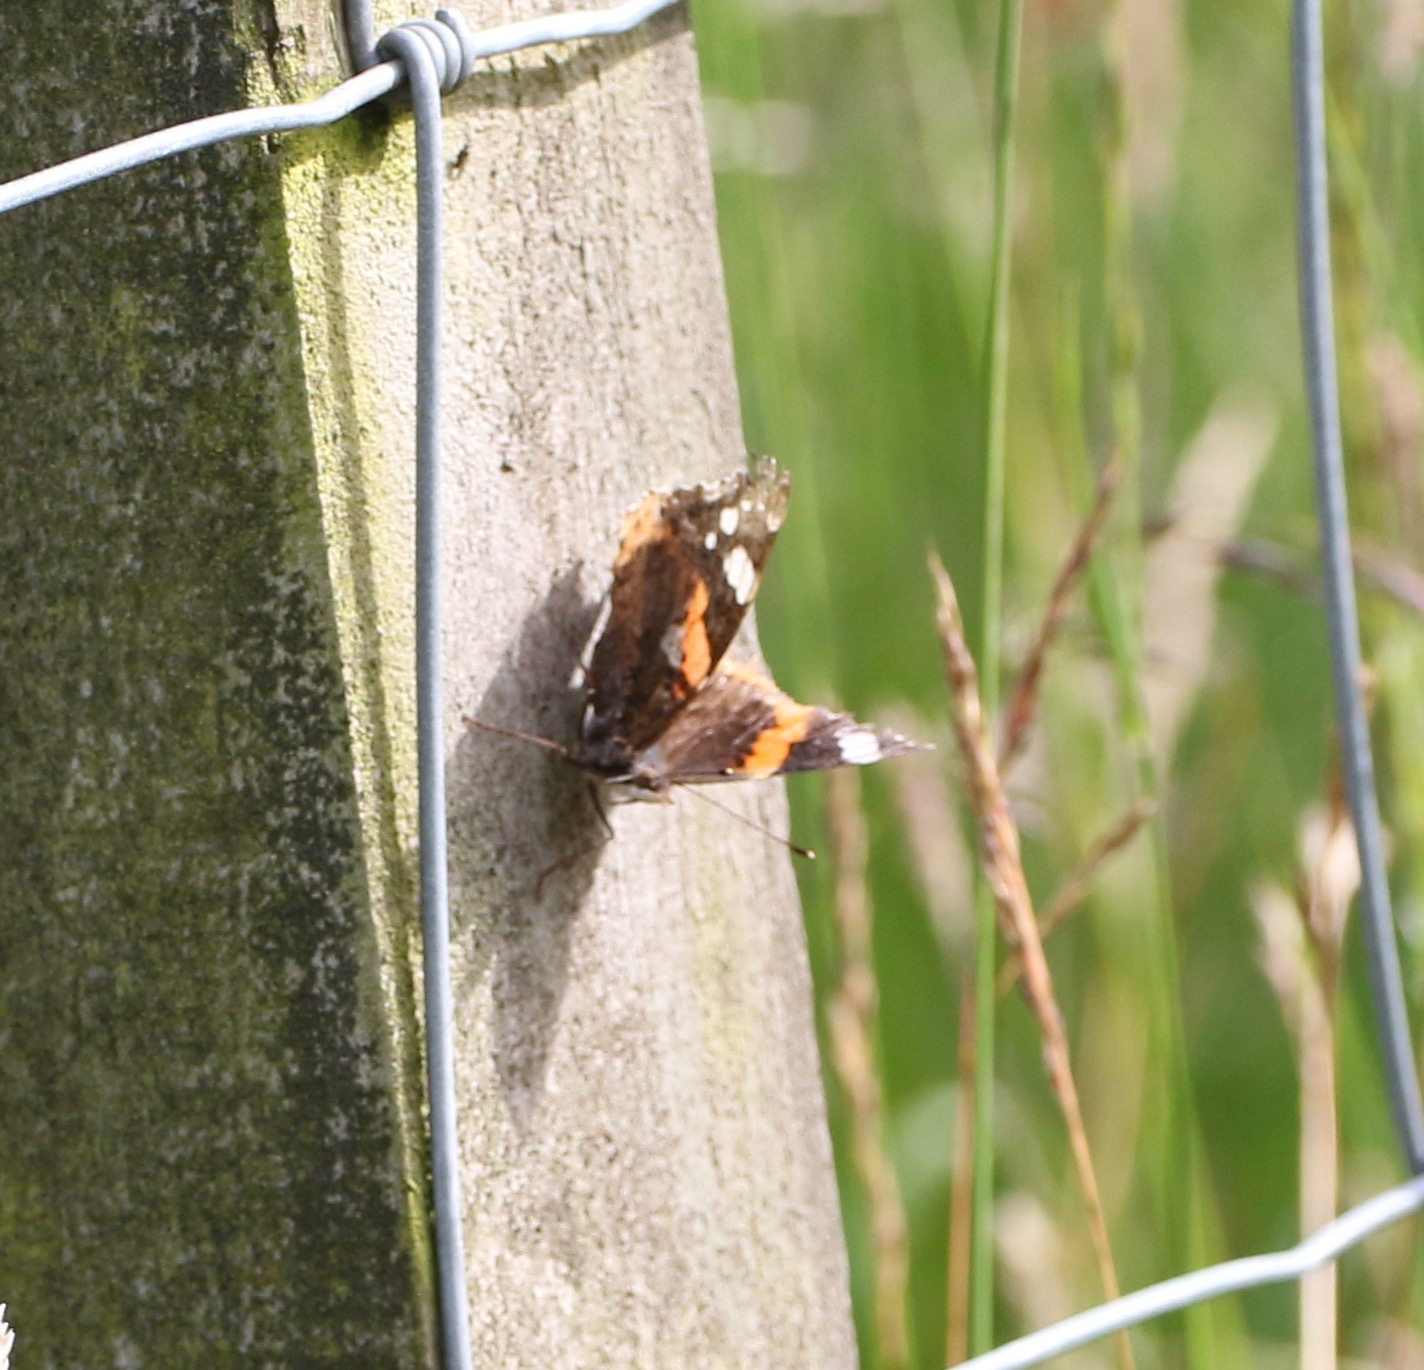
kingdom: Animalia
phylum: Arthropoda
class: Insecta
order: Lepidoptera
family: Nymphalidae
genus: Vanessa
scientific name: Vanessa atalanta
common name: Red admiral
